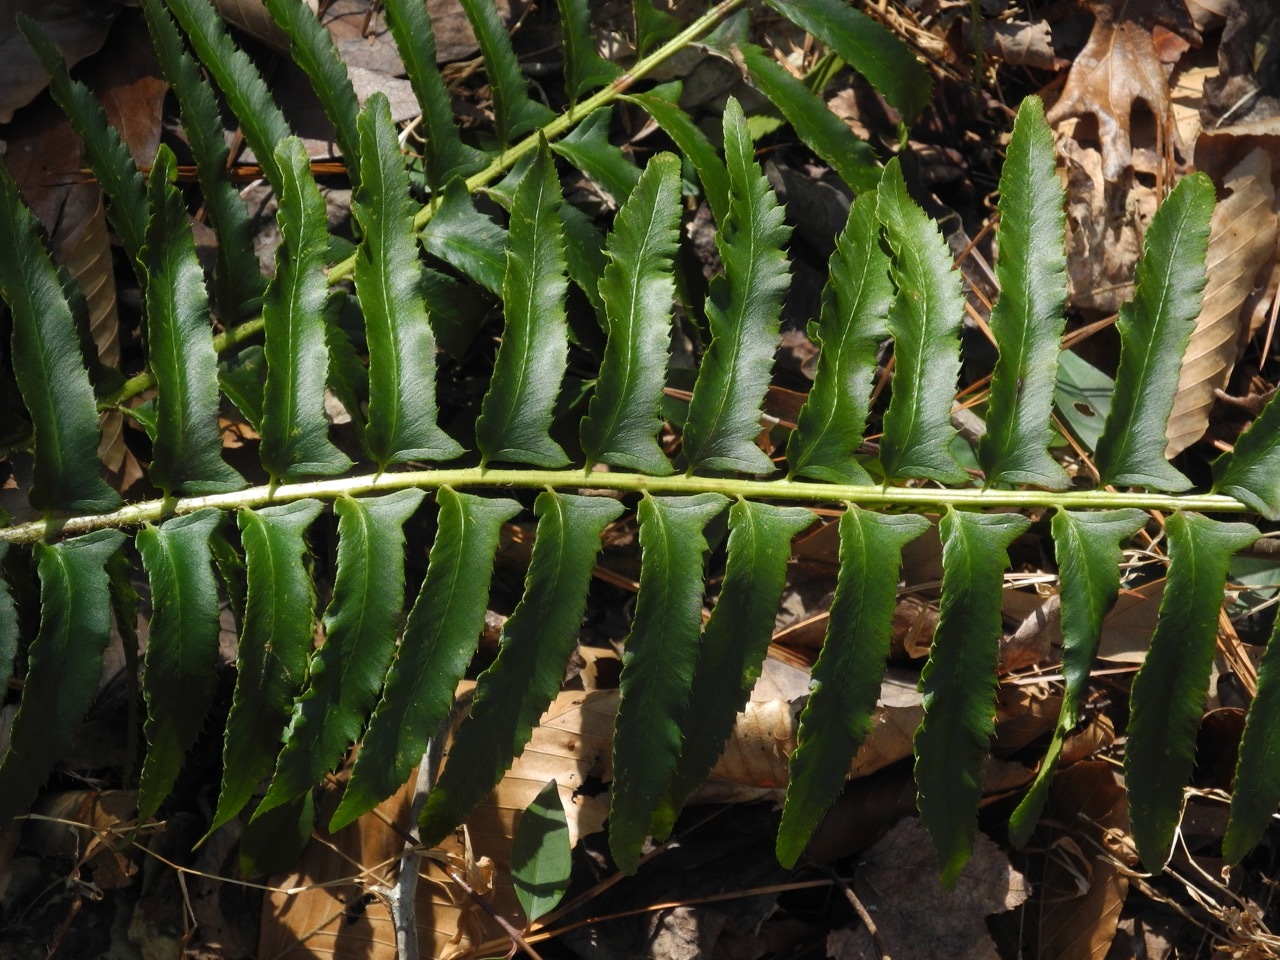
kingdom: Plantae
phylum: Tracheophyta
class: Polypodiopsida
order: Polypodiales
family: Dryopteridaceae
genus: Polystichum
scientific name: Polystichum acrostichoides
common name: Christmas fern
